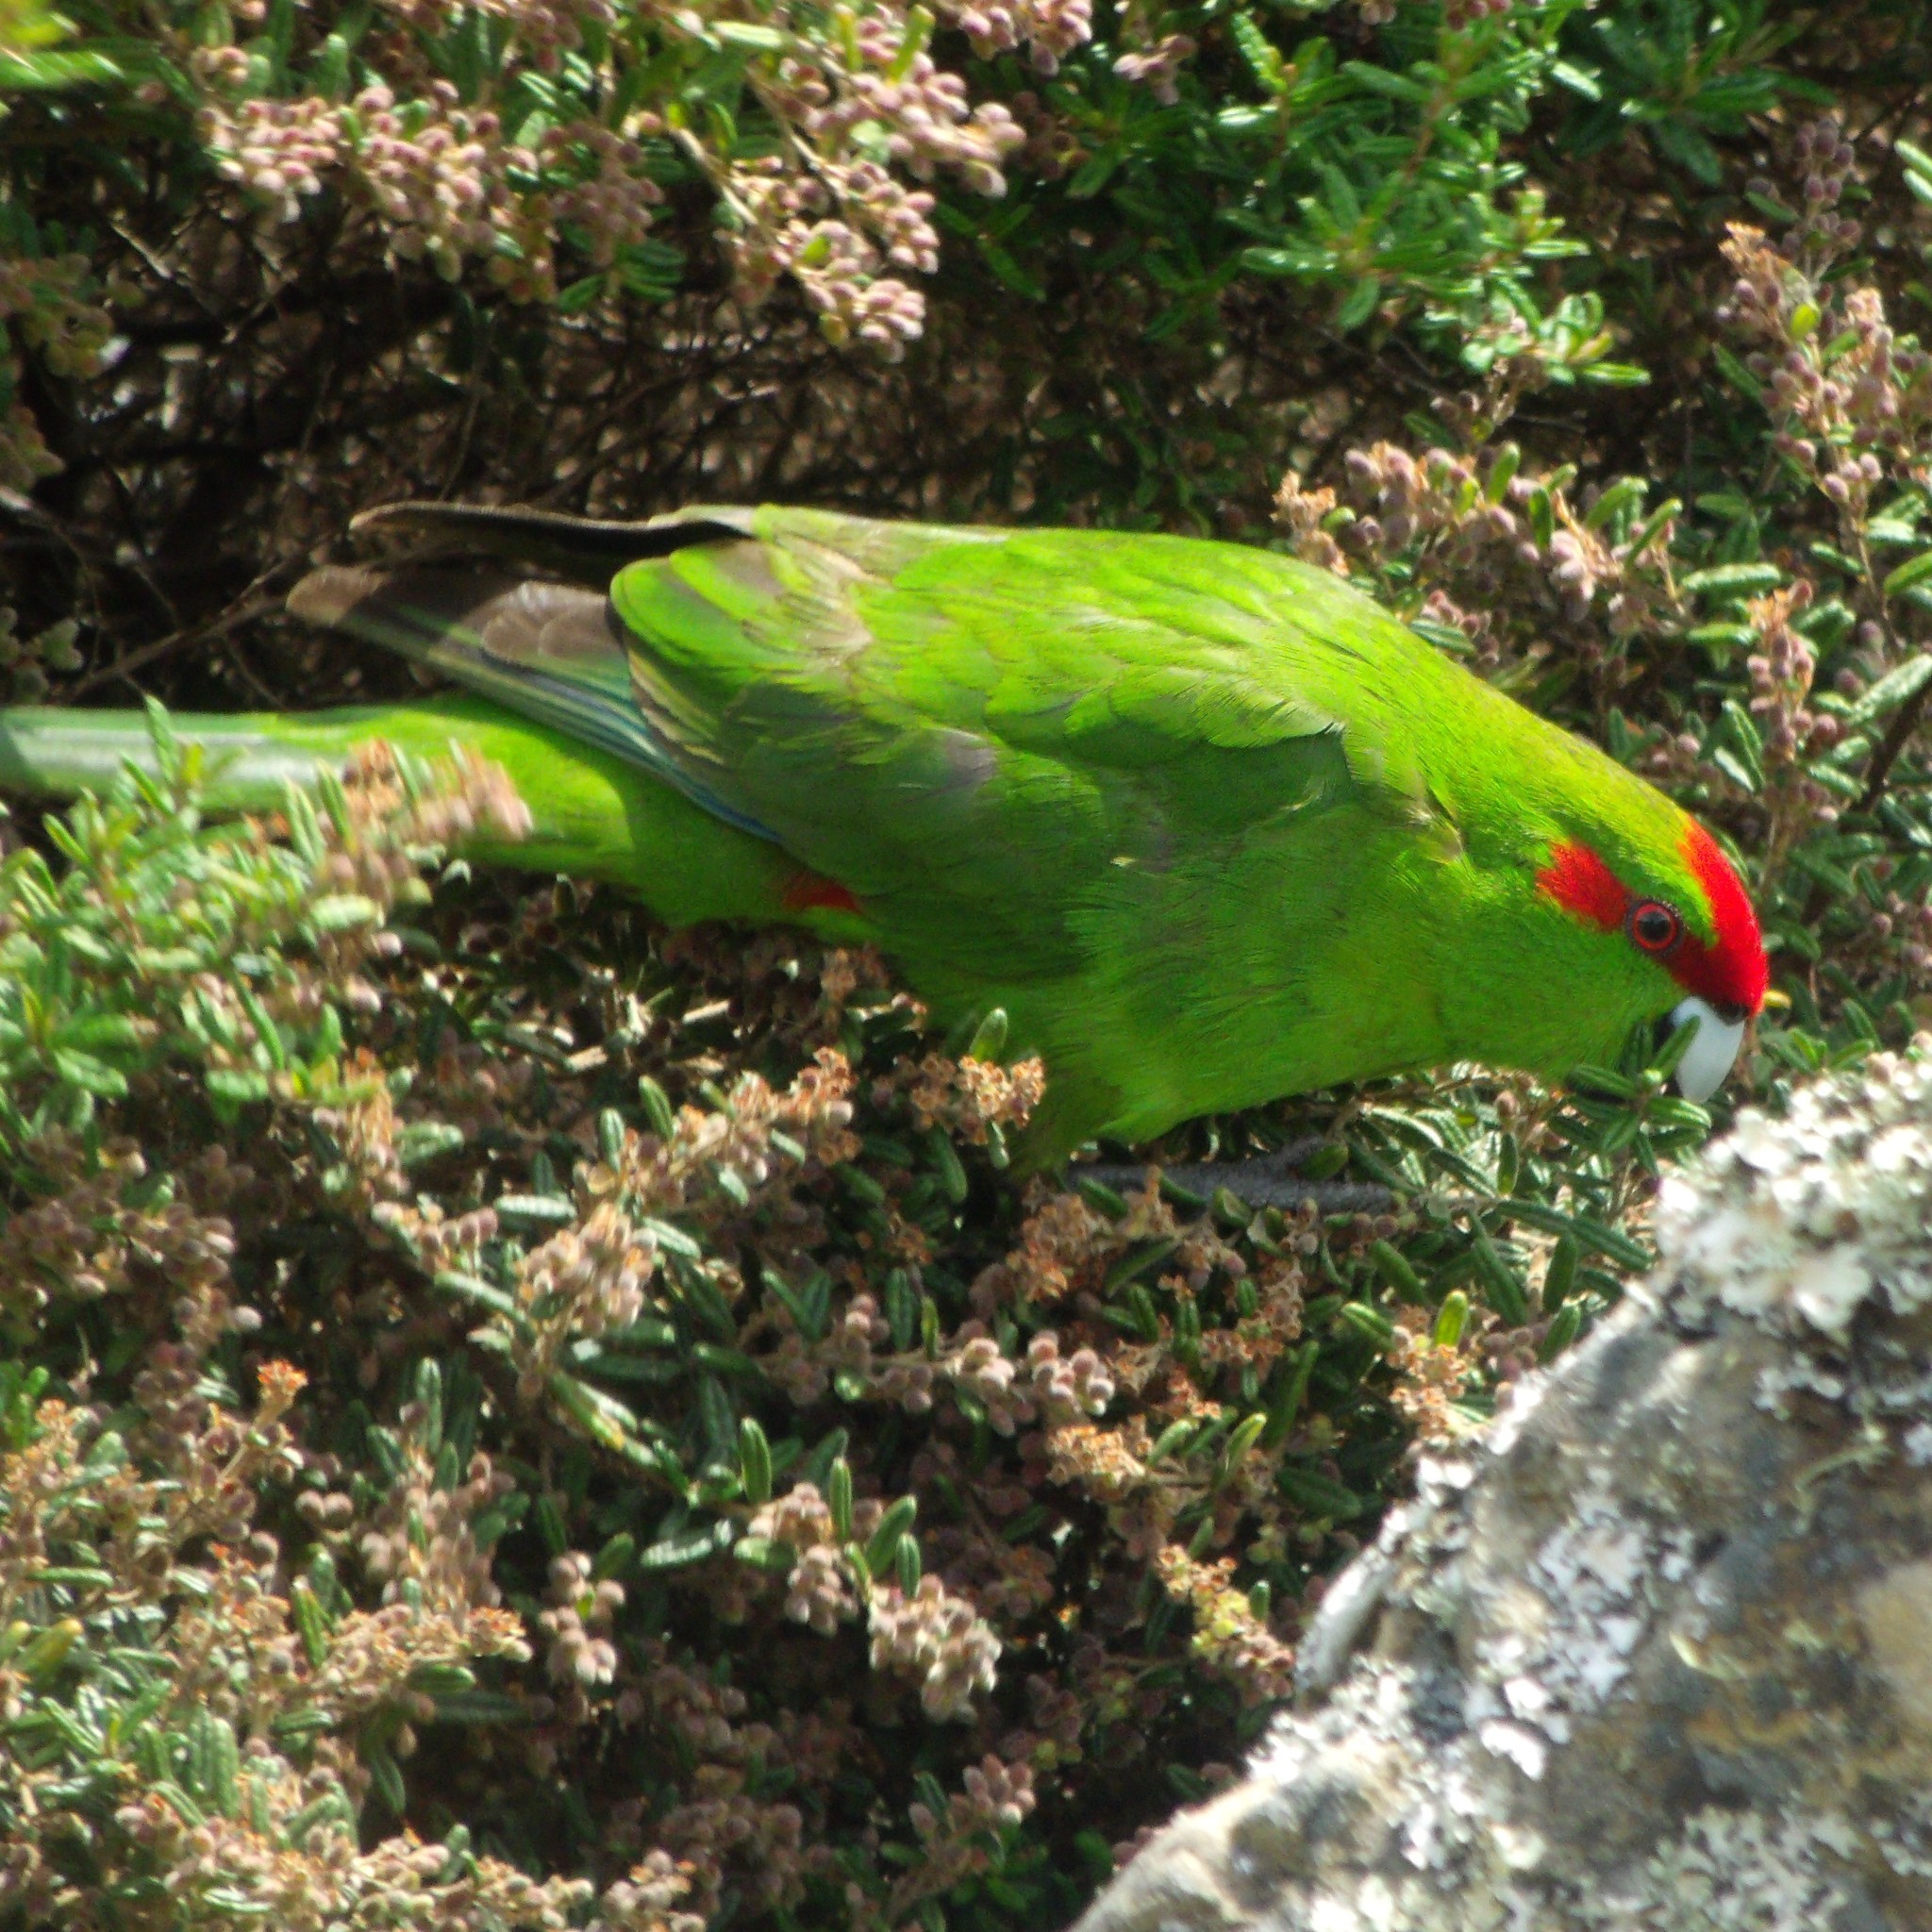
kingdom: Animalia
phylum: Chordata
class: Aves
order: Psittaciformes
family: Psittacidae
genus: Cyanoramphus
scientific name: Cyanoramphus novaezelandiae
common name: Red-fronted parakeet
